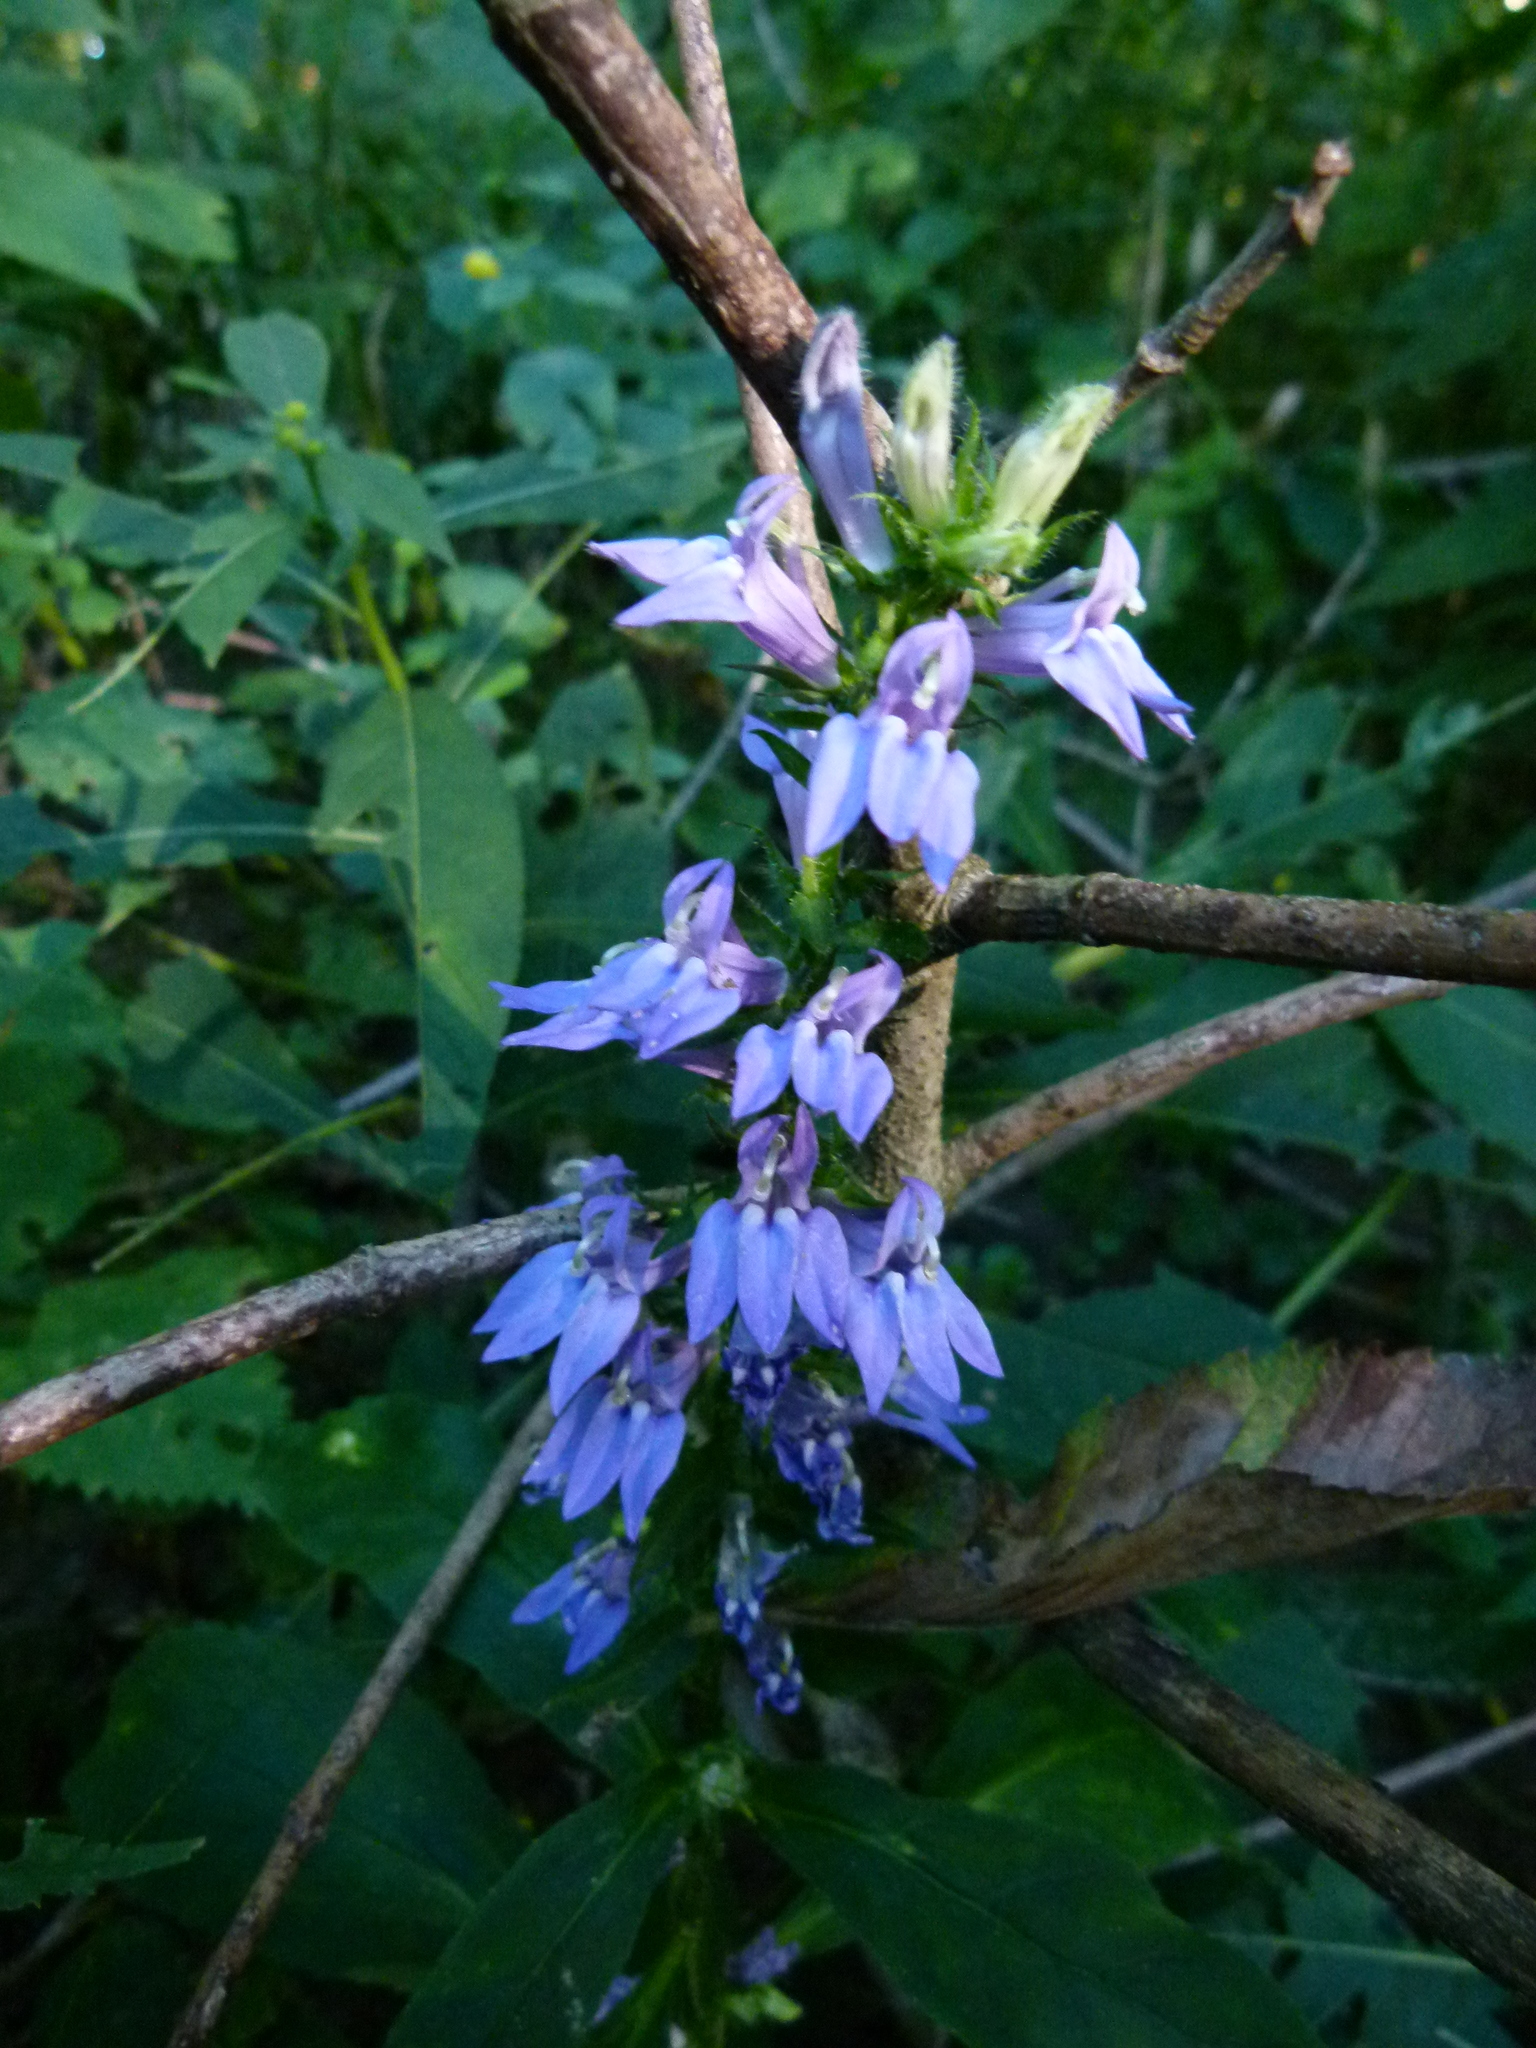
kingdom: Plantae
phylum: Tracheophyta
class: Magnoliopsida
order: Asterales
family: Campanulaceae
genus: Lobelia
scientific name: Lobelia siphilitica
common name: Great lobelia
